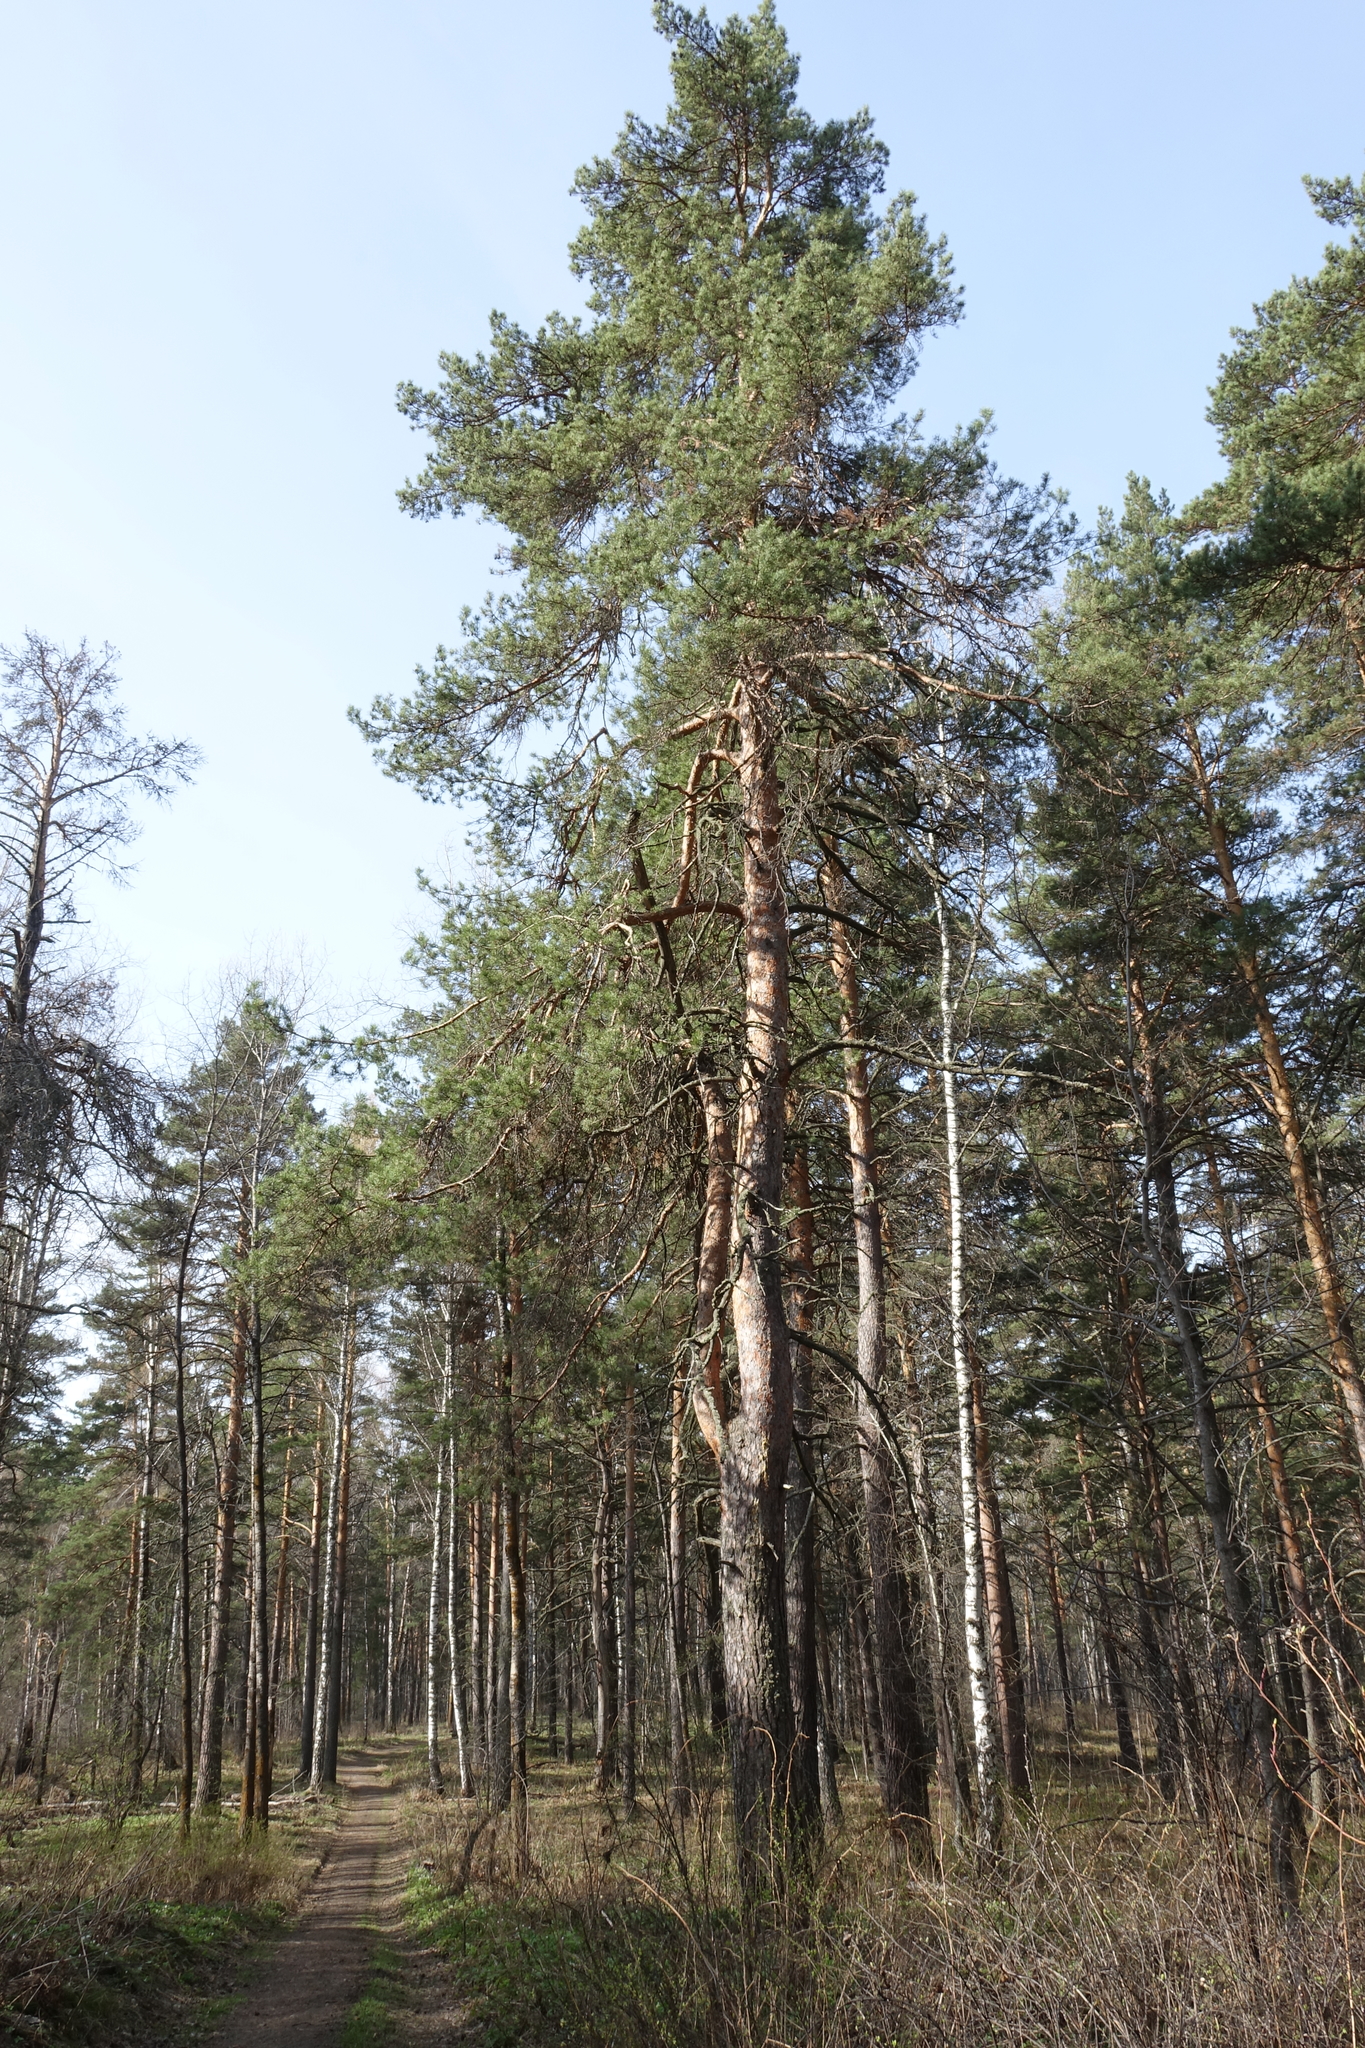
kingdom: Plantae
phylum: Tracheophyta
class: Pinopsida
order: Pinales
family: Pinaceae
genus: Pinus
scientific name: Pinus sylvestris
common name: Scots pine
